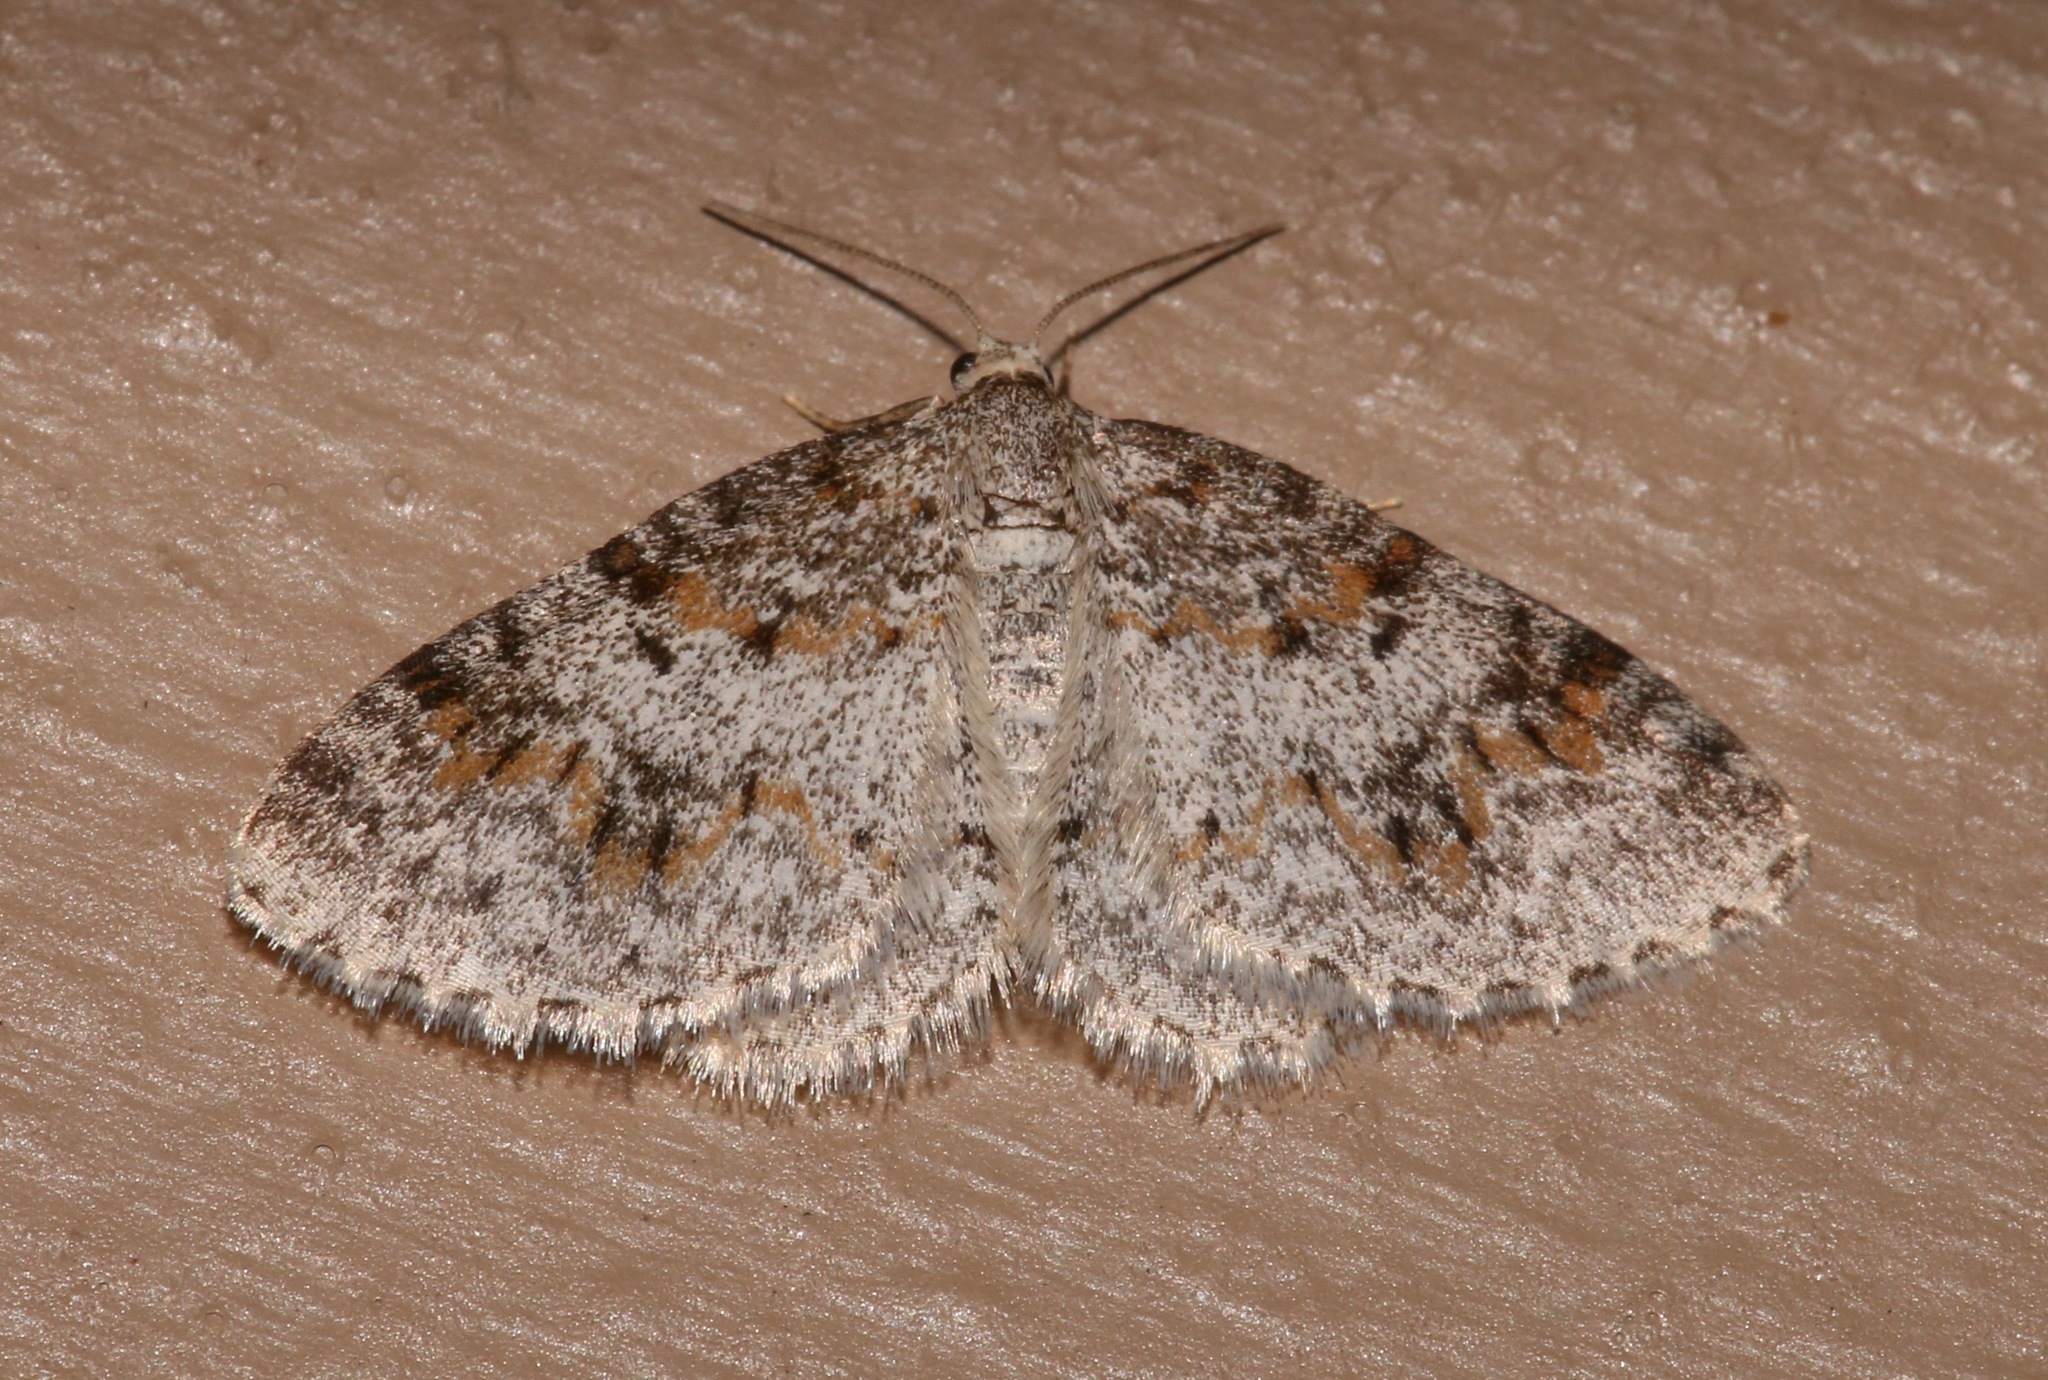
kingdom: Animalia
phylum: Arthropoda
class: Insecta
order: Lepidoptera
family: Geometridae
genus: Hydrelia
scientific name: Hydrelia inornata
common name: Unadorned carpet moth
